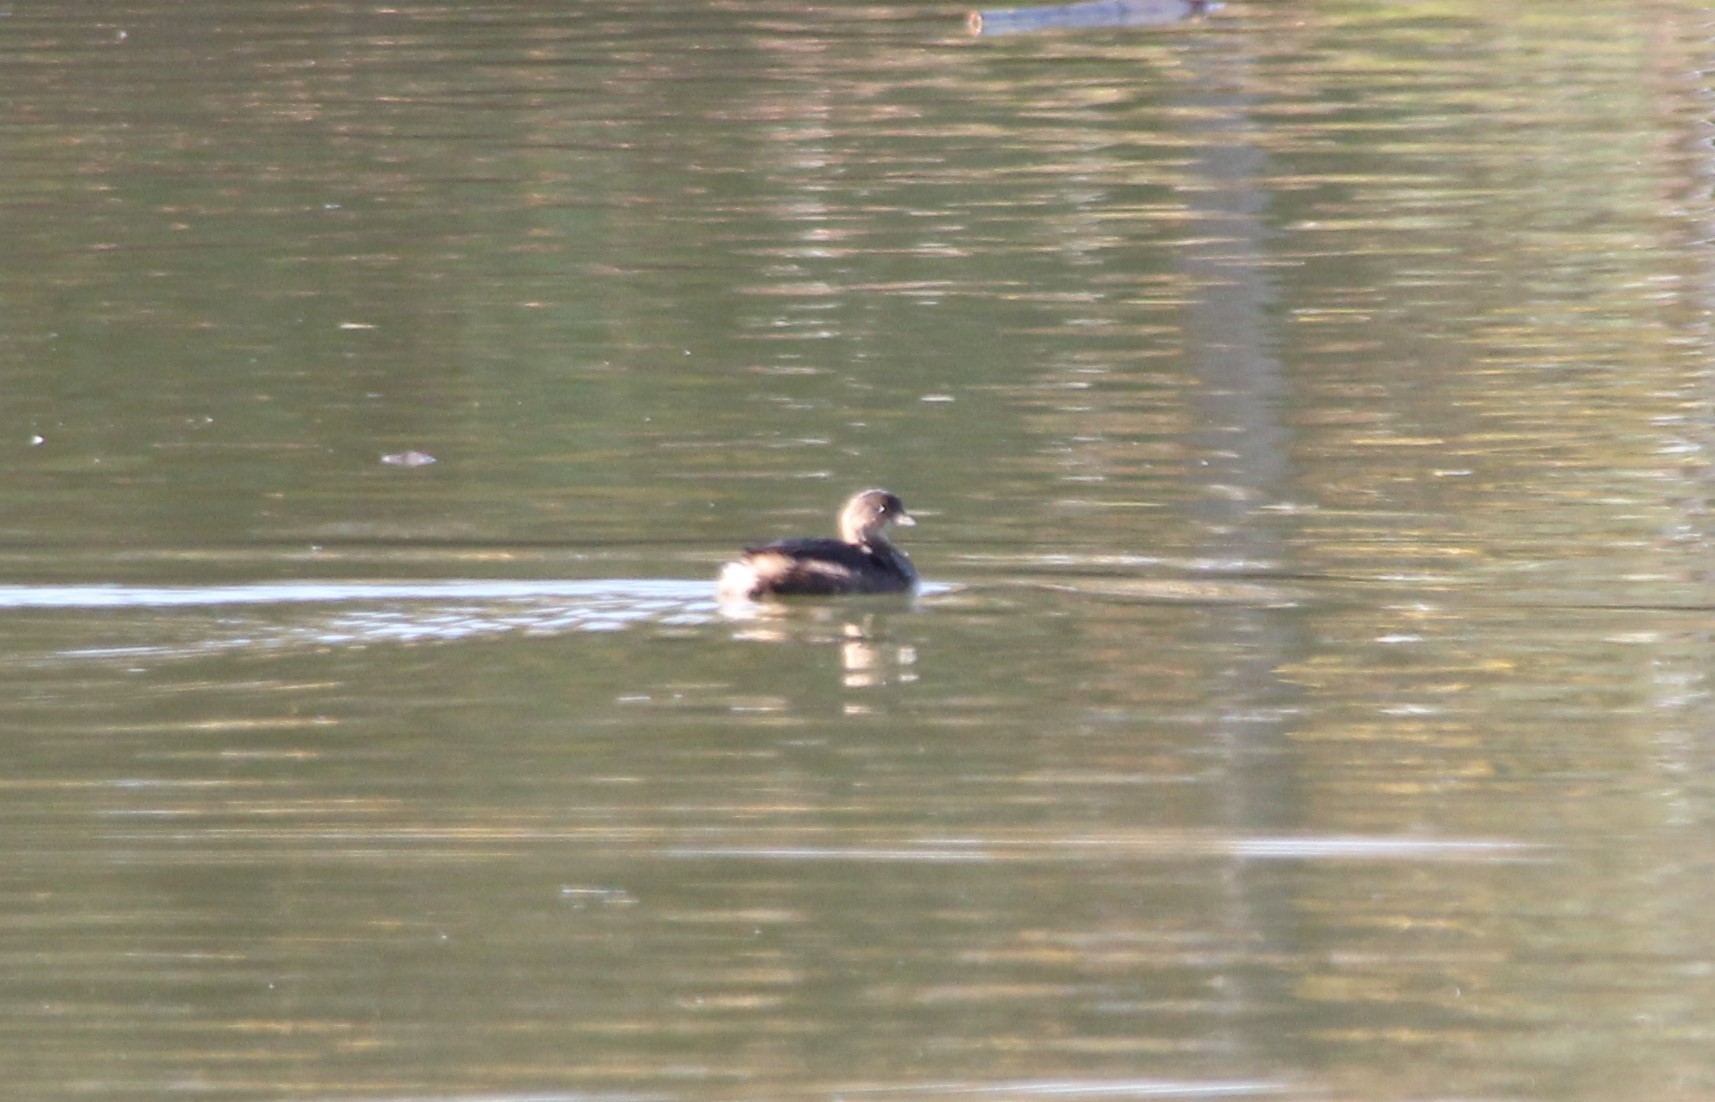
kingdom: Animalia
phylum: Chordata
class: Aves
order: Podicipediformes
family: Podicipedidae
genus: Podilymbus
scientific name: Podilymbus podiceps
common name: Pied-billed grebe
